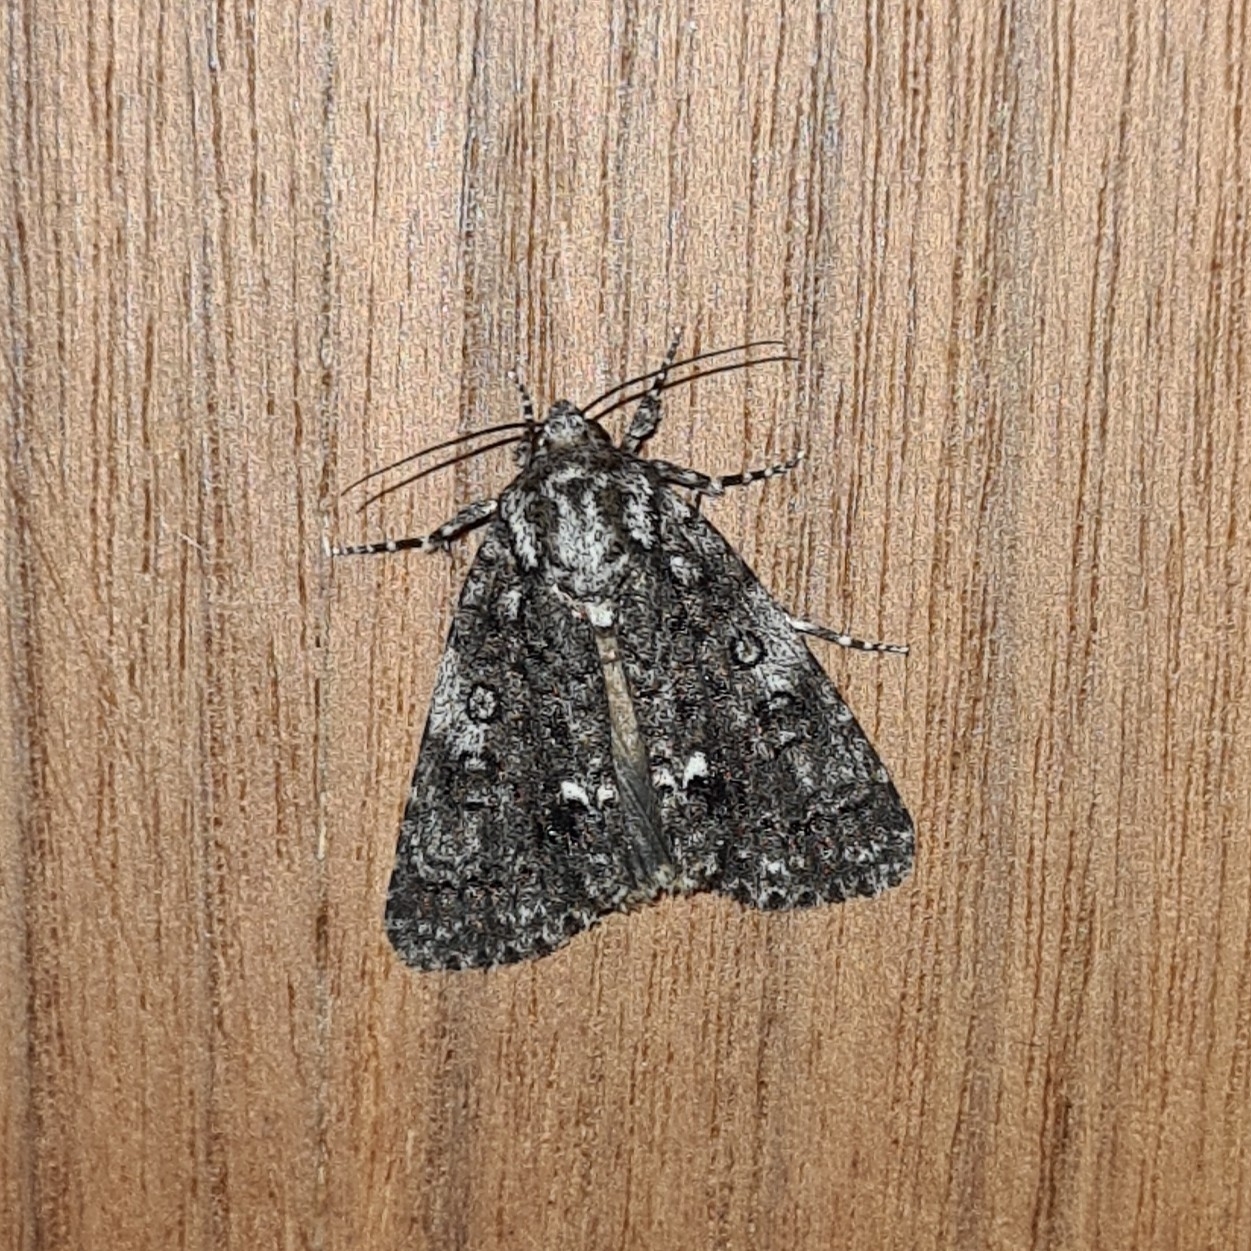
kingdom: Animalia
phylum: Arthropoda
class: Insecta
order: Lepidoptera
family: Noctuidae
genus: Acronicta
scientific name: Acronicta rumicis
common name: Knot grass
